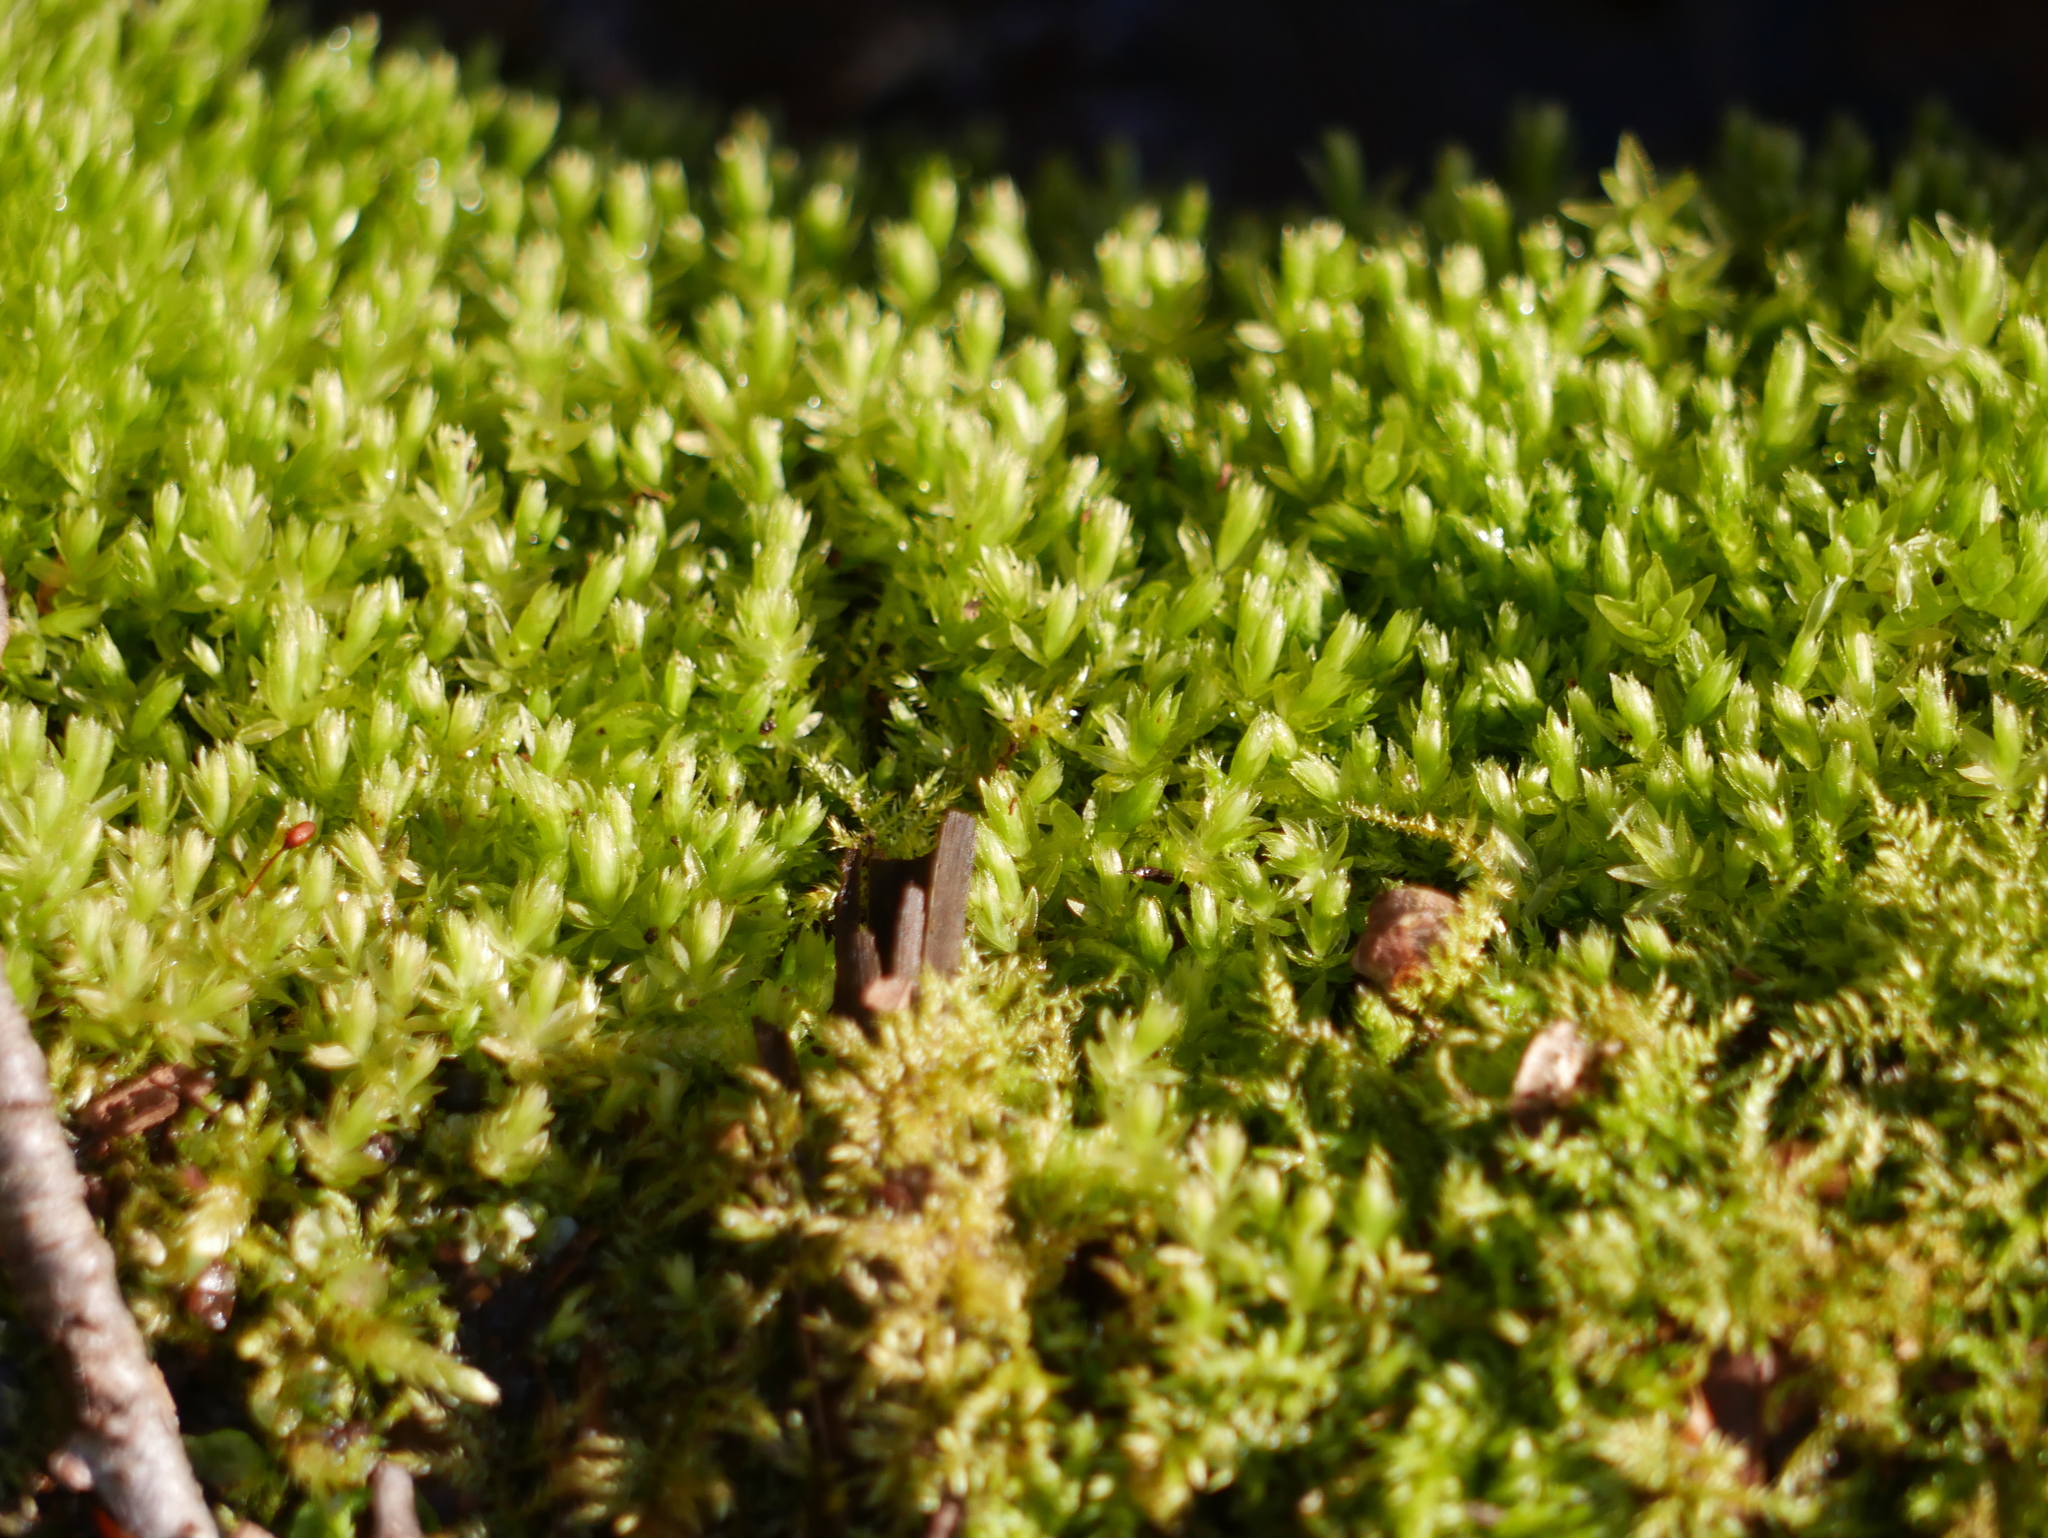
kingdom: Plantae
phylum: Bryophyta
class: Bryopsida
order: Bryales
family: Mniaceae
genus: Mnium
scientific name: Mnium hornum
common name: Swan's-neck leafy moss
